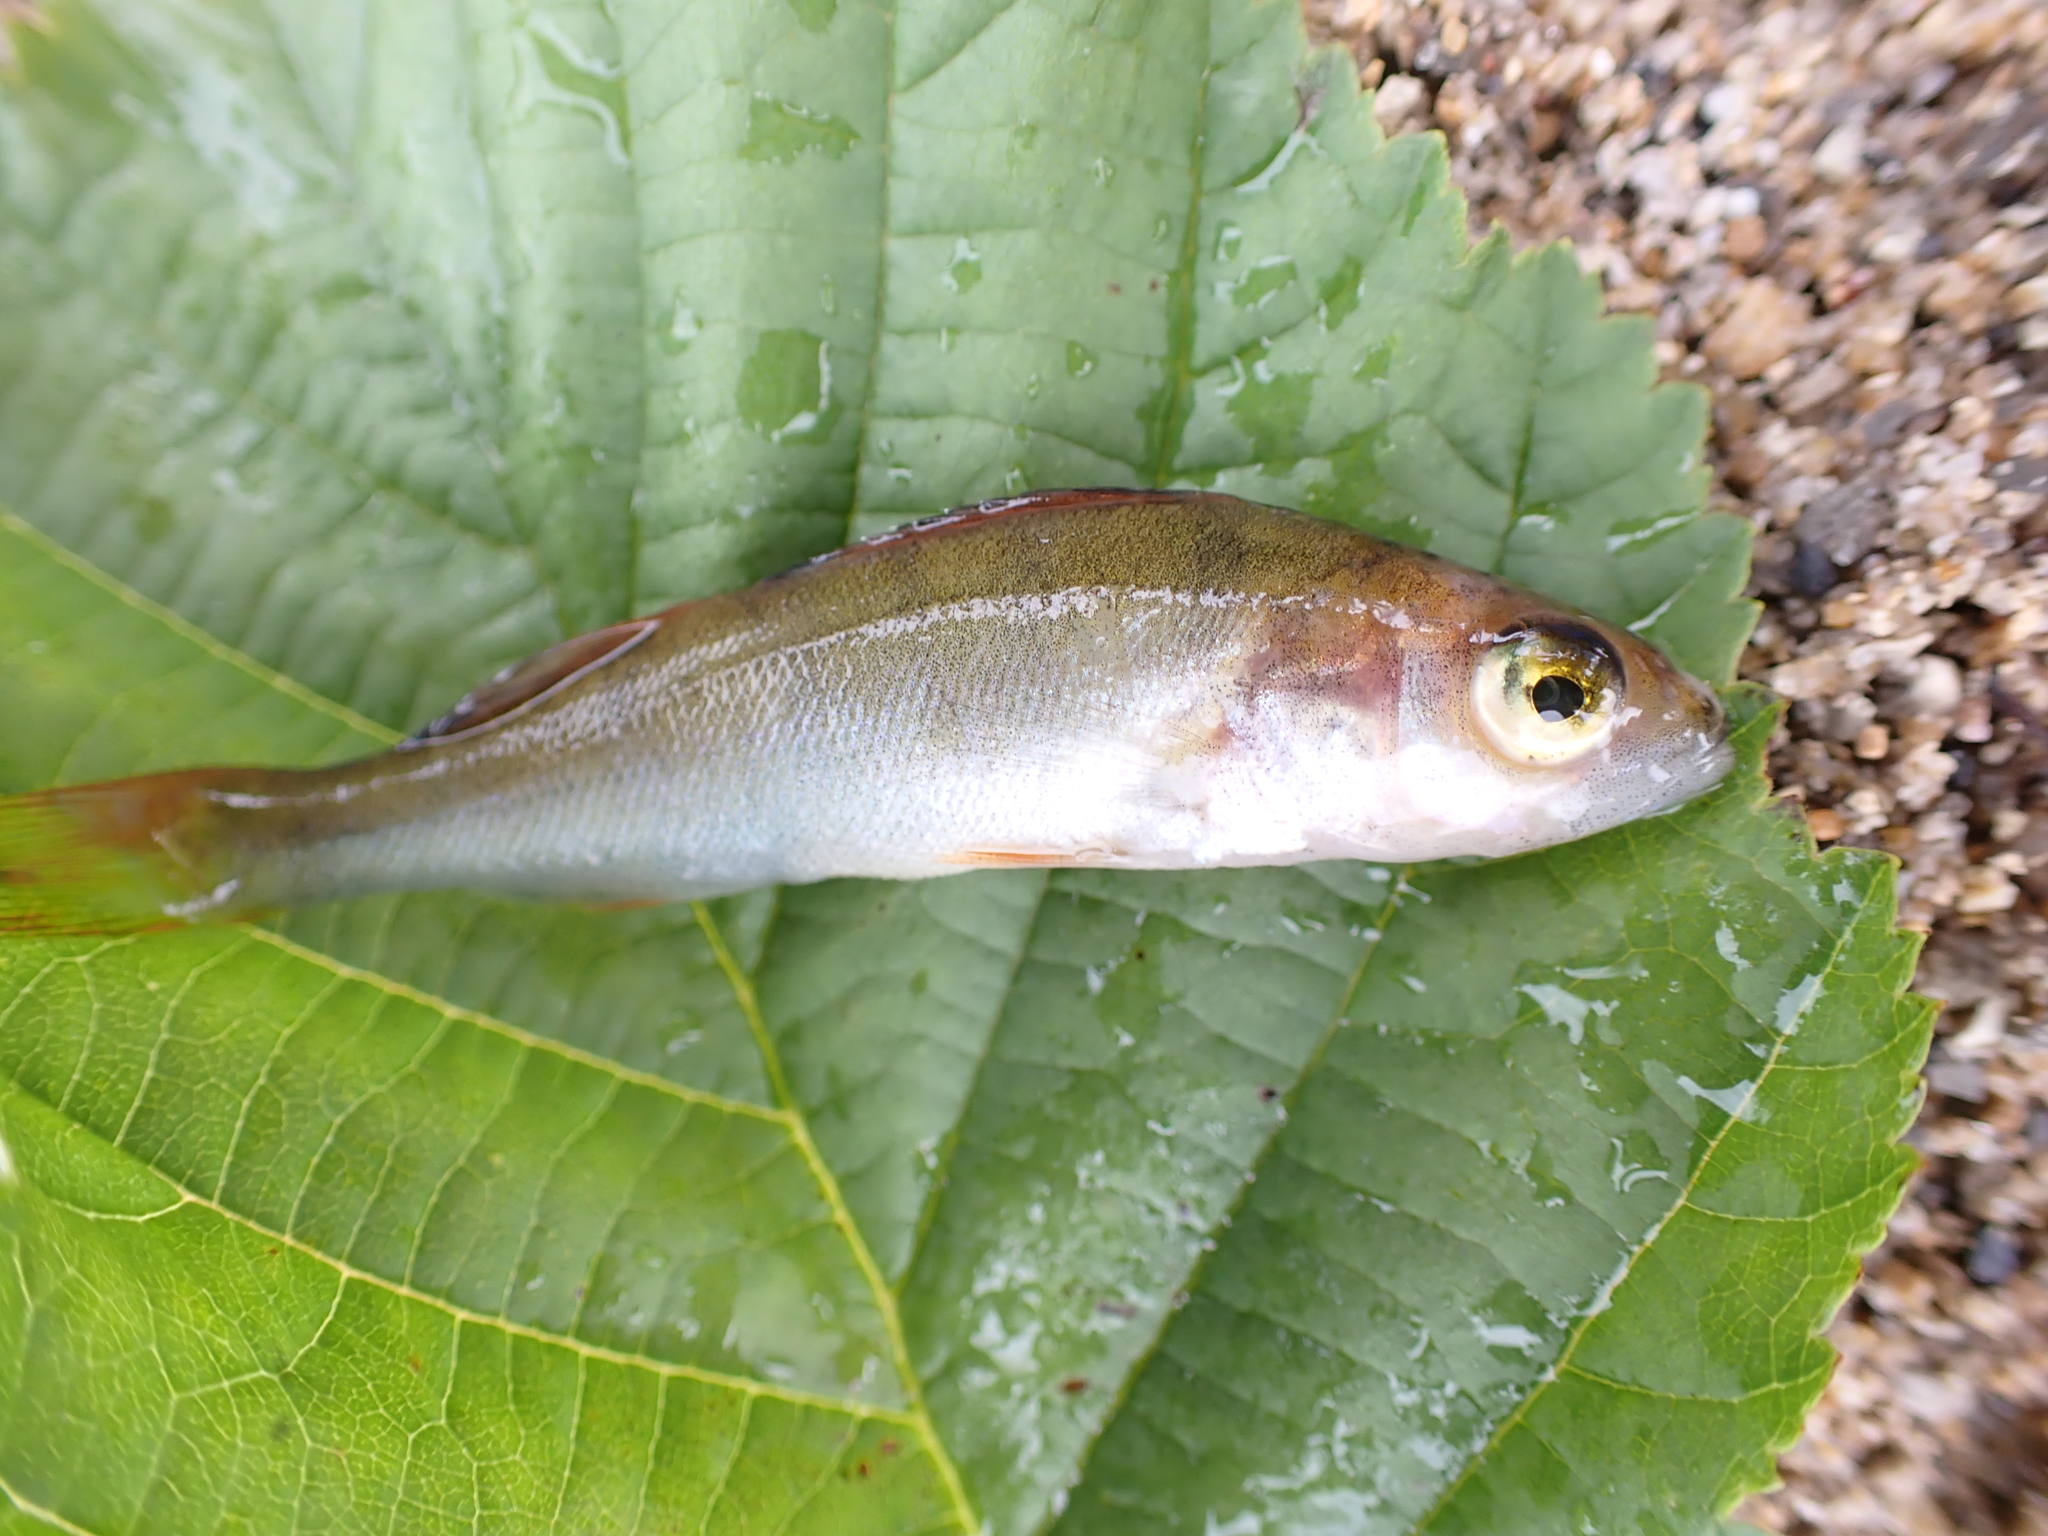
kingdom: Animalia
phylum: Chordata
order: Perciformes
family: Percidae
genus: Perca
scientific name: Perca fluviatilis
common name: Perch
